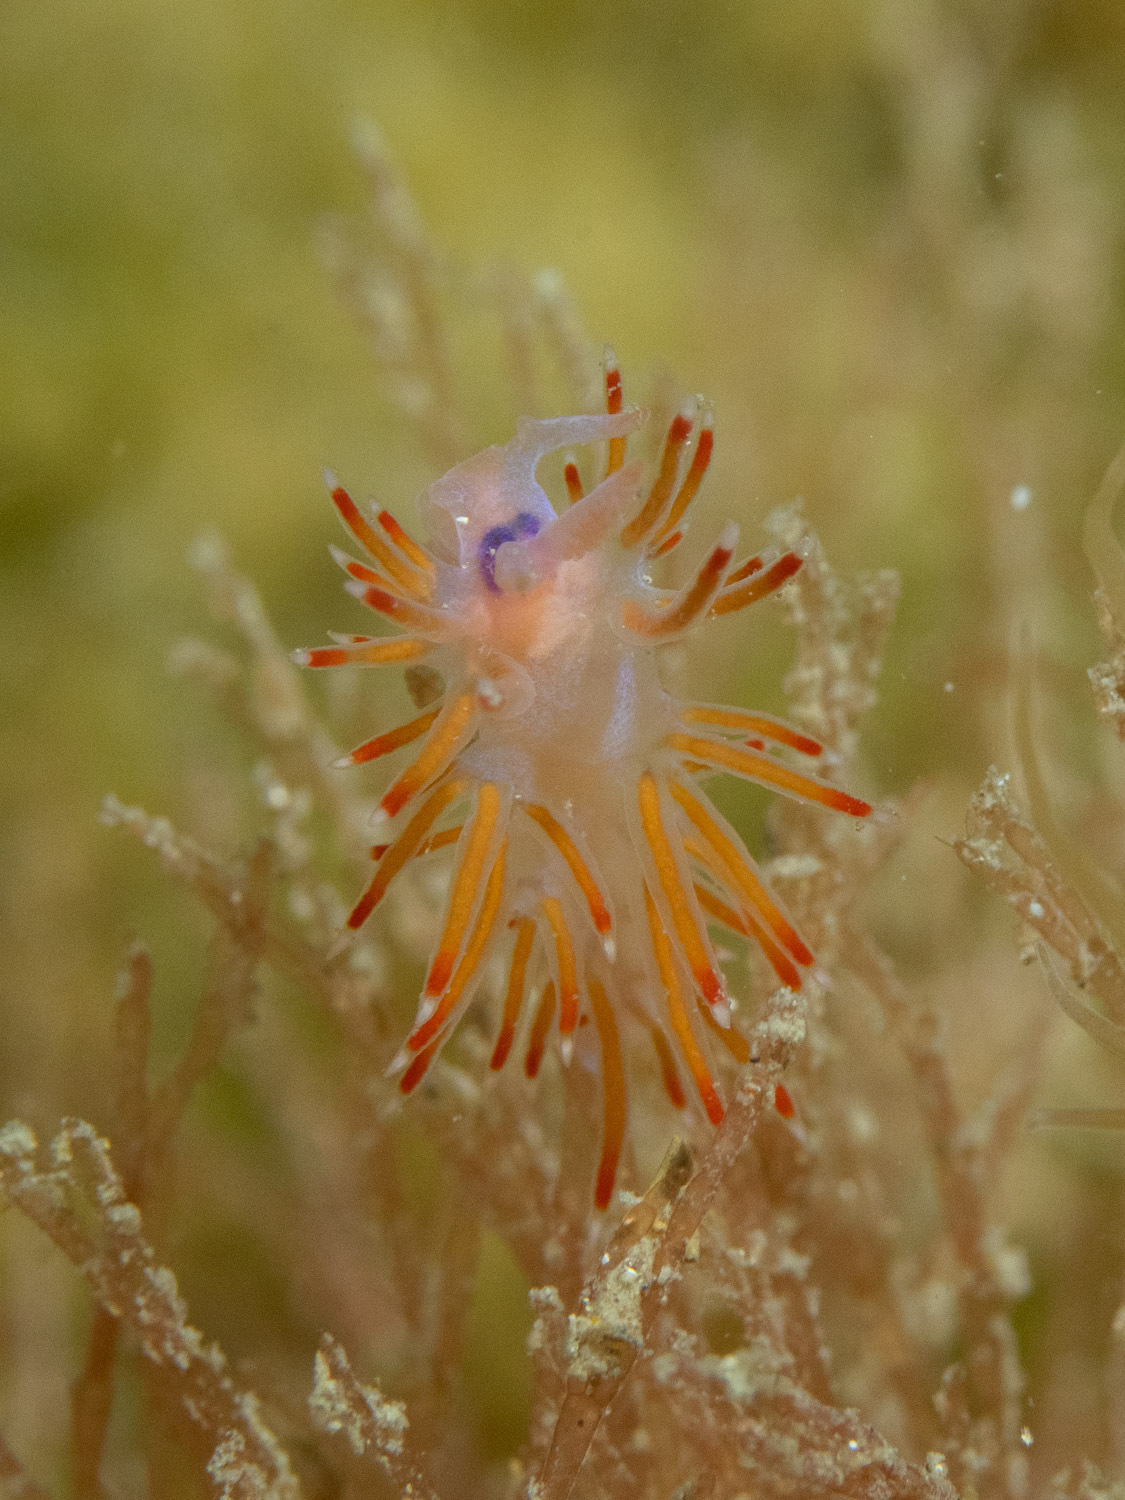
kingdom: Animalia
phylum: Mollusca
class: Gastropoda
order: Nudibranchia
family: Flabellinidae
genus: Coryphellina
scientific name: Coryphellina poenicia
